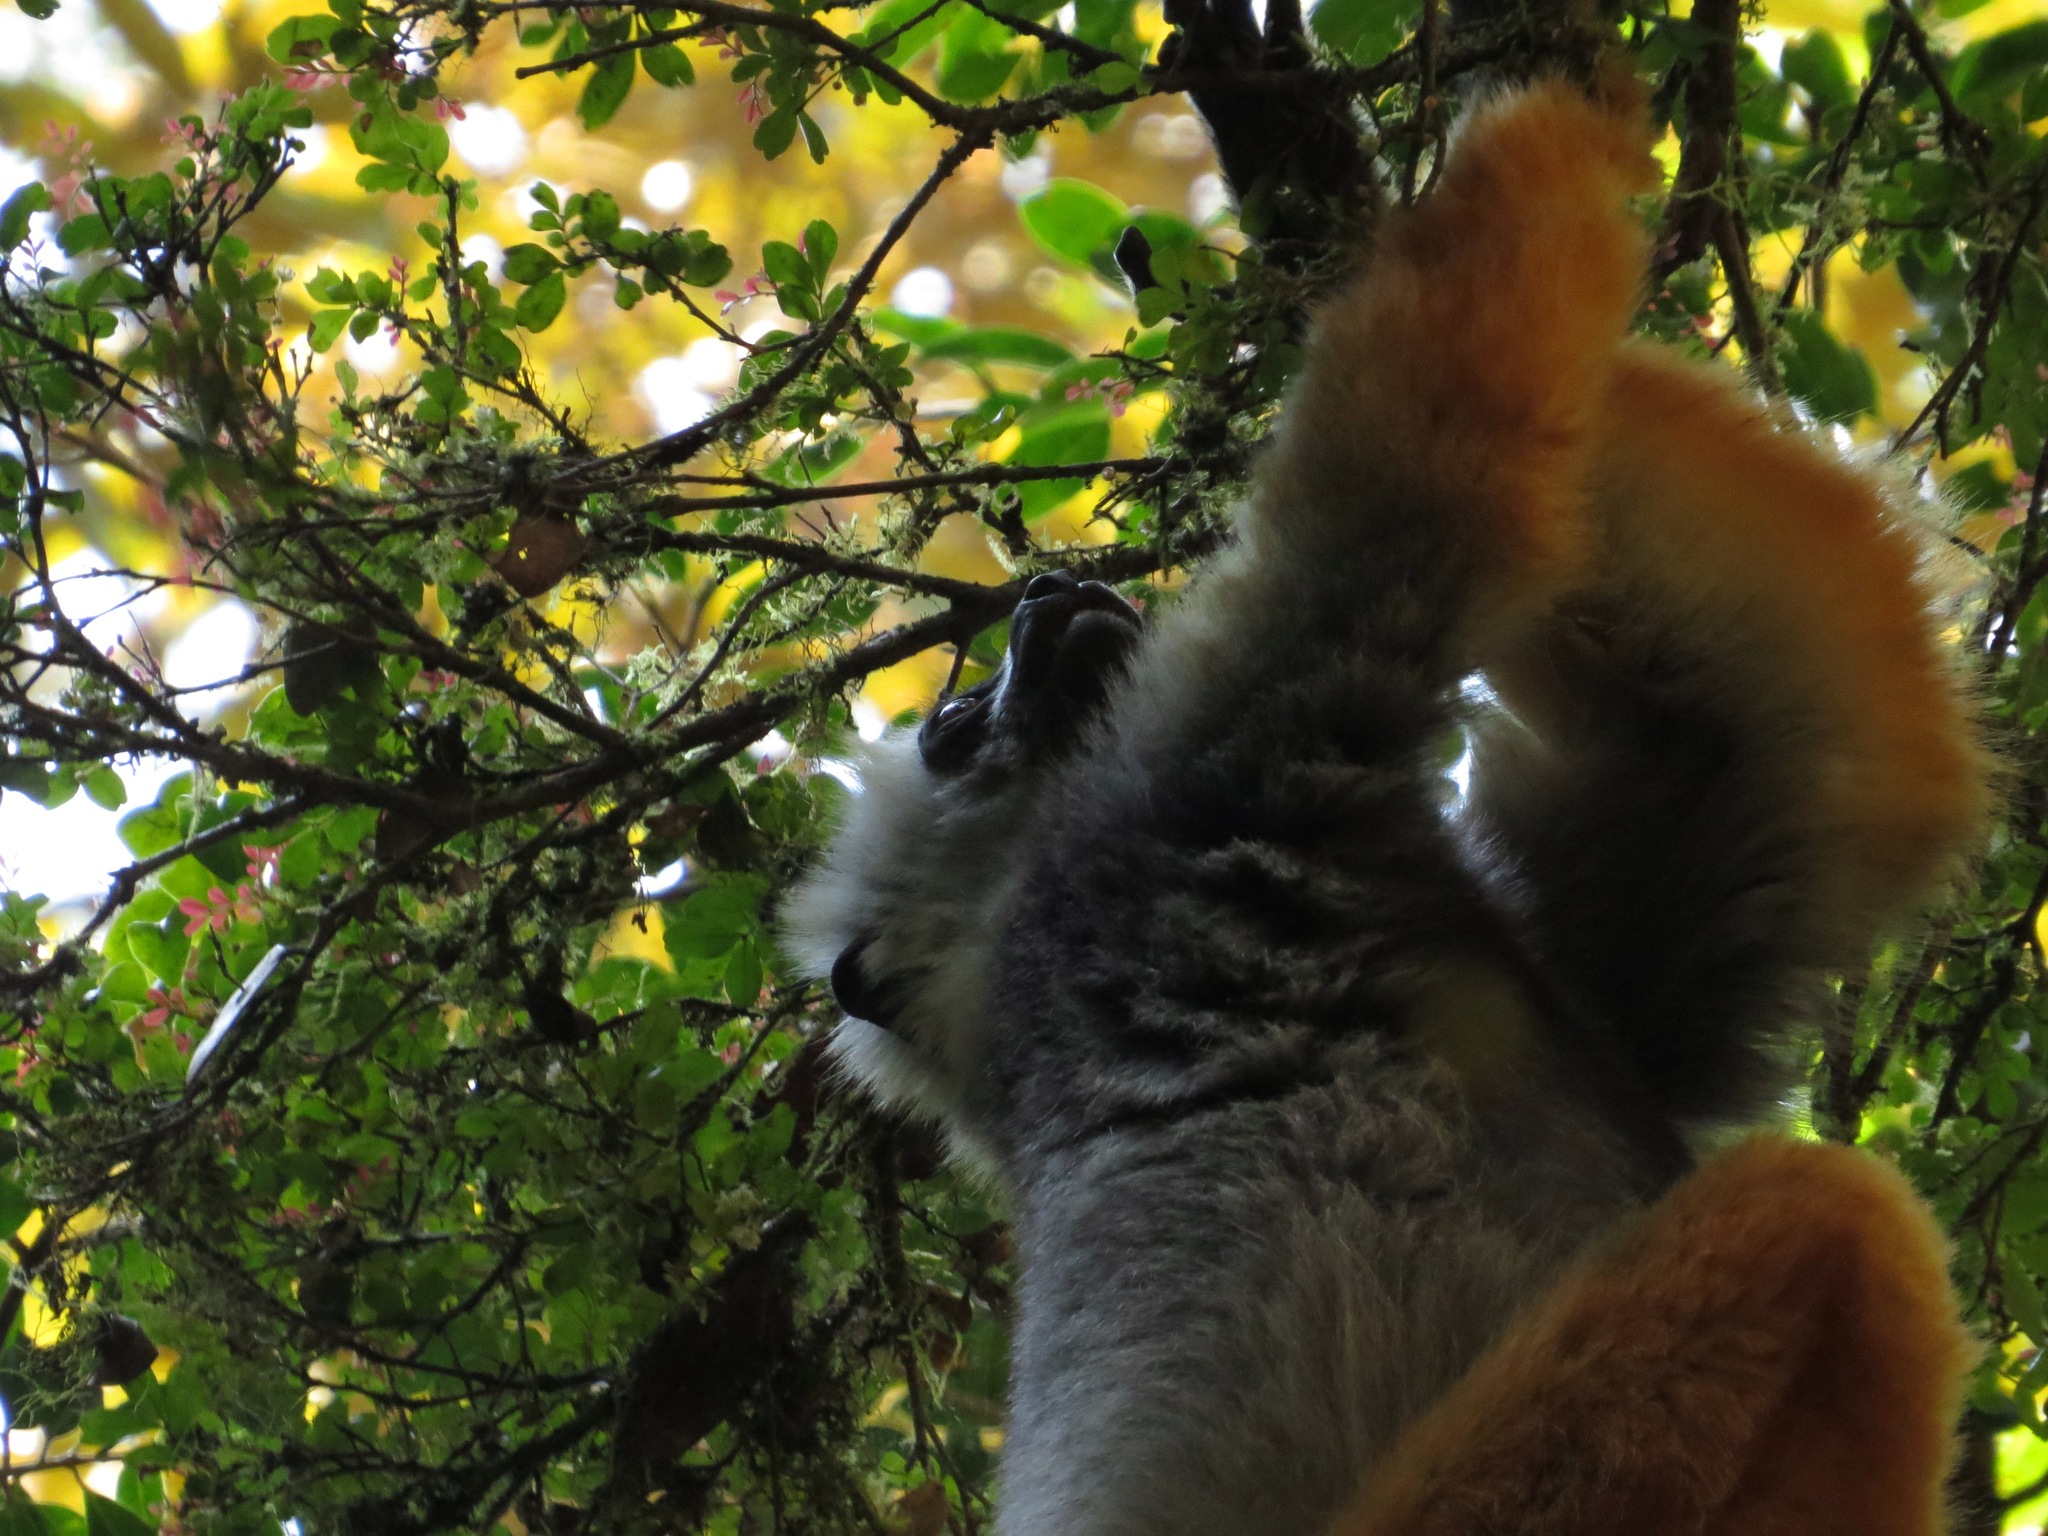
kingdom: Animalia
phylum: Chordata
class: Mammalia
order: Primates
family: Indriidae
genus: Propithecus
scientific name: Propithecus diadema
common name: Diademed sifaka
